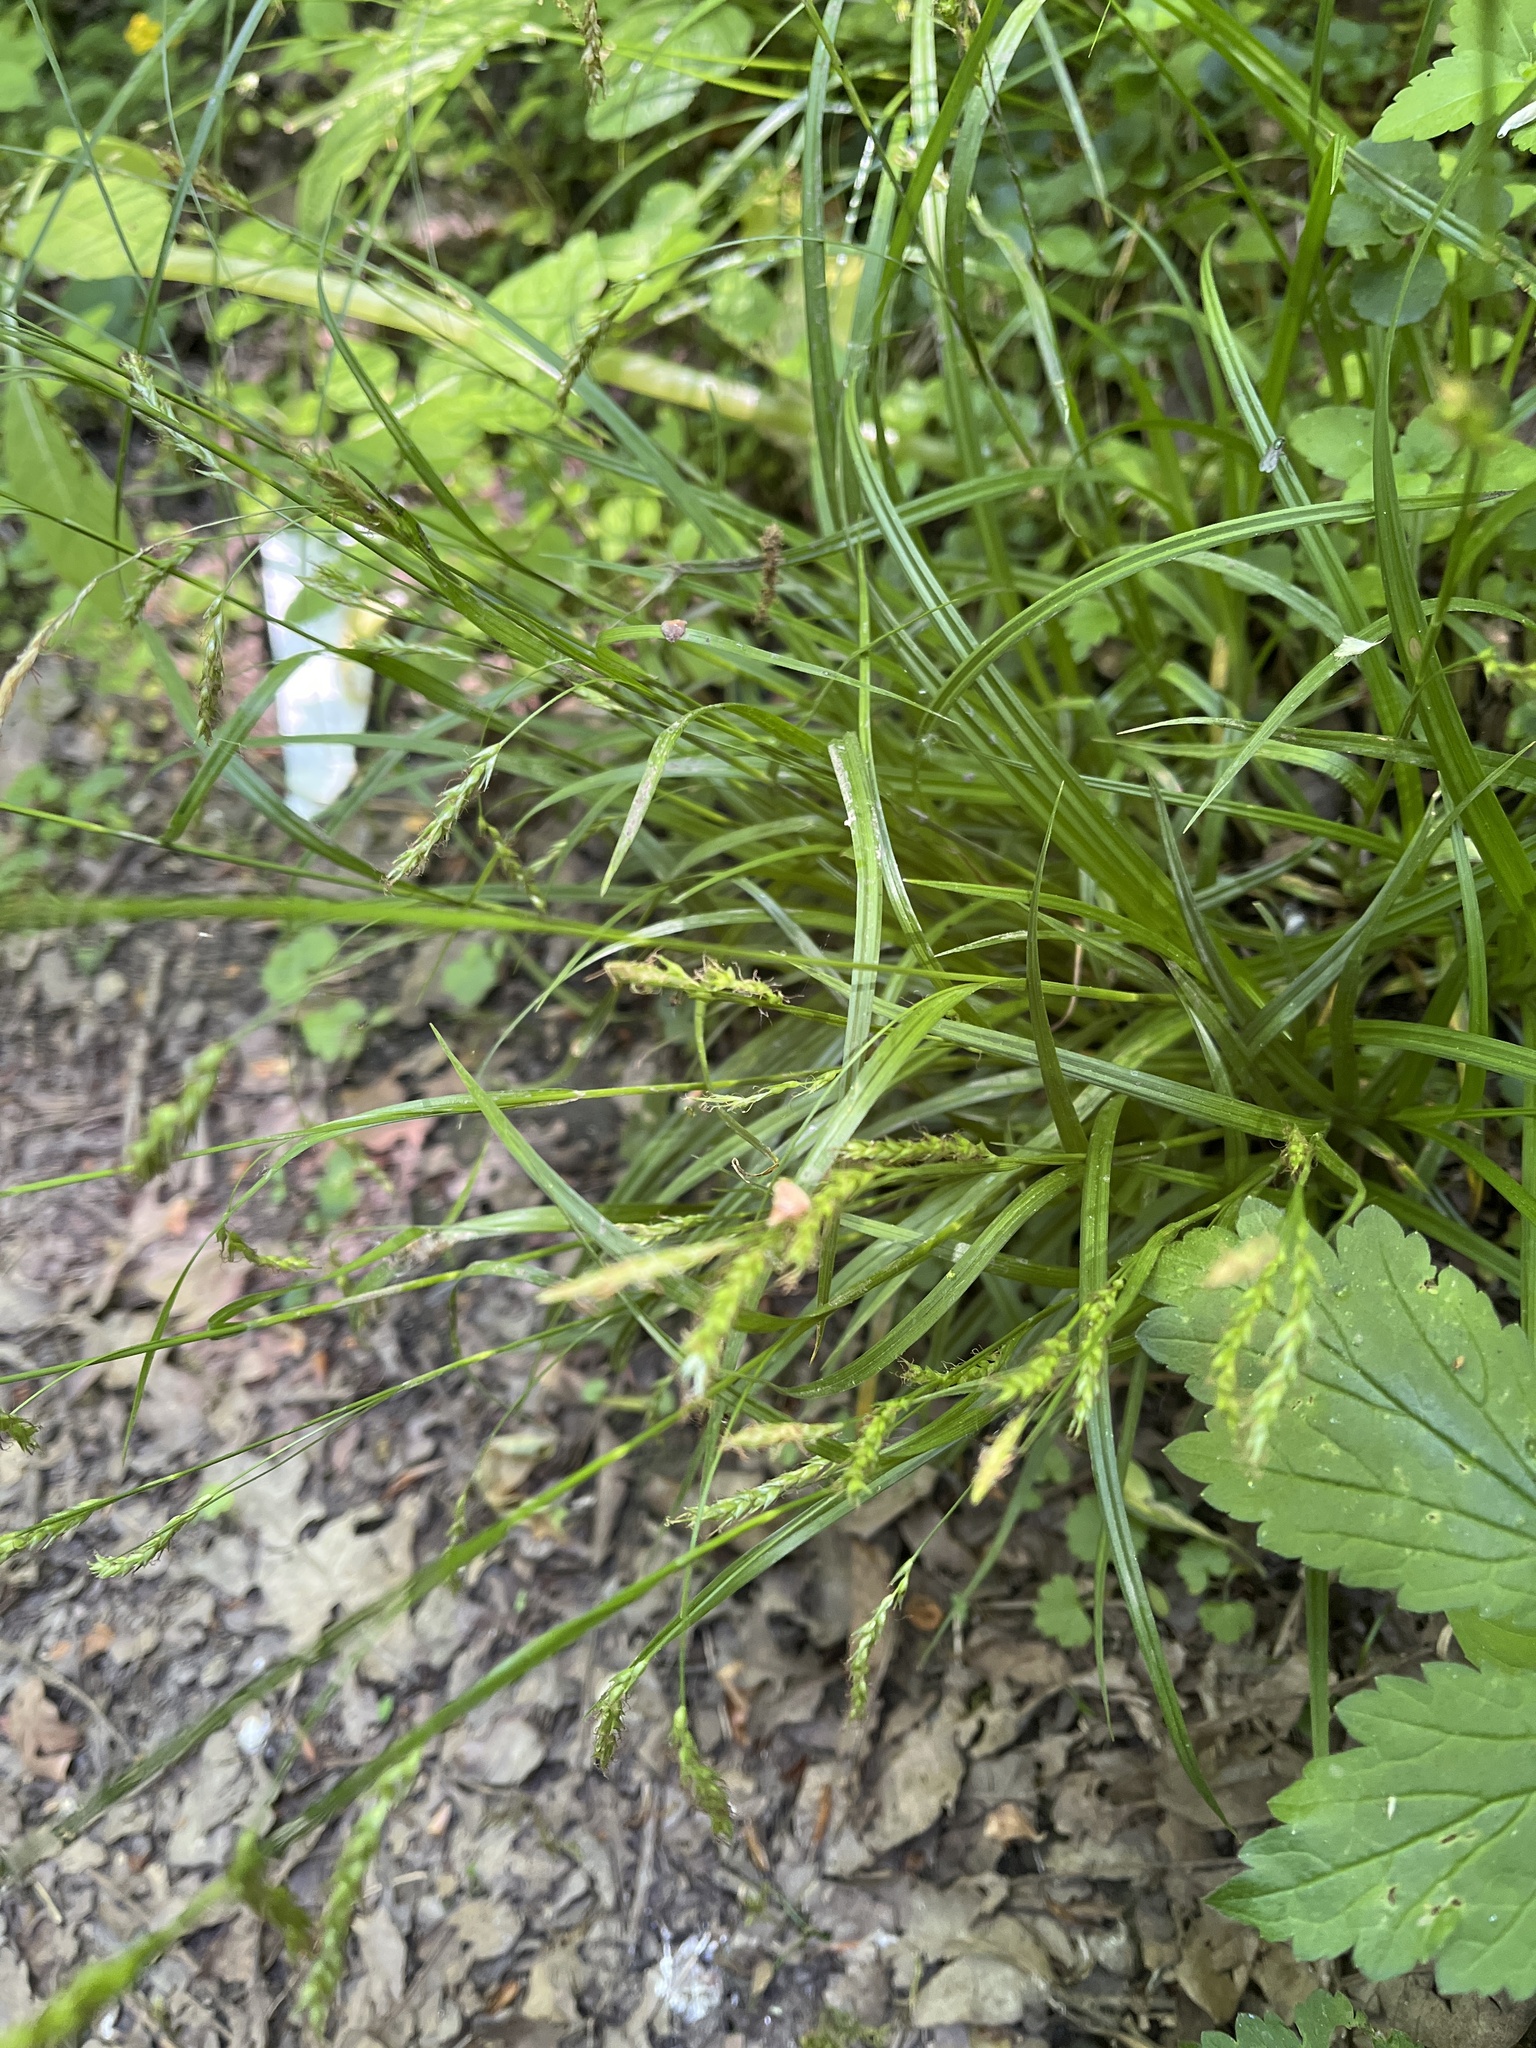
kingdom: Plantae
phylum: Tracheophyta
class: Liliopsida
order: Poales
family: Cyperaceae
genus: Carex
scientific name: Carex sylvatica
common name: Wood-sedge
